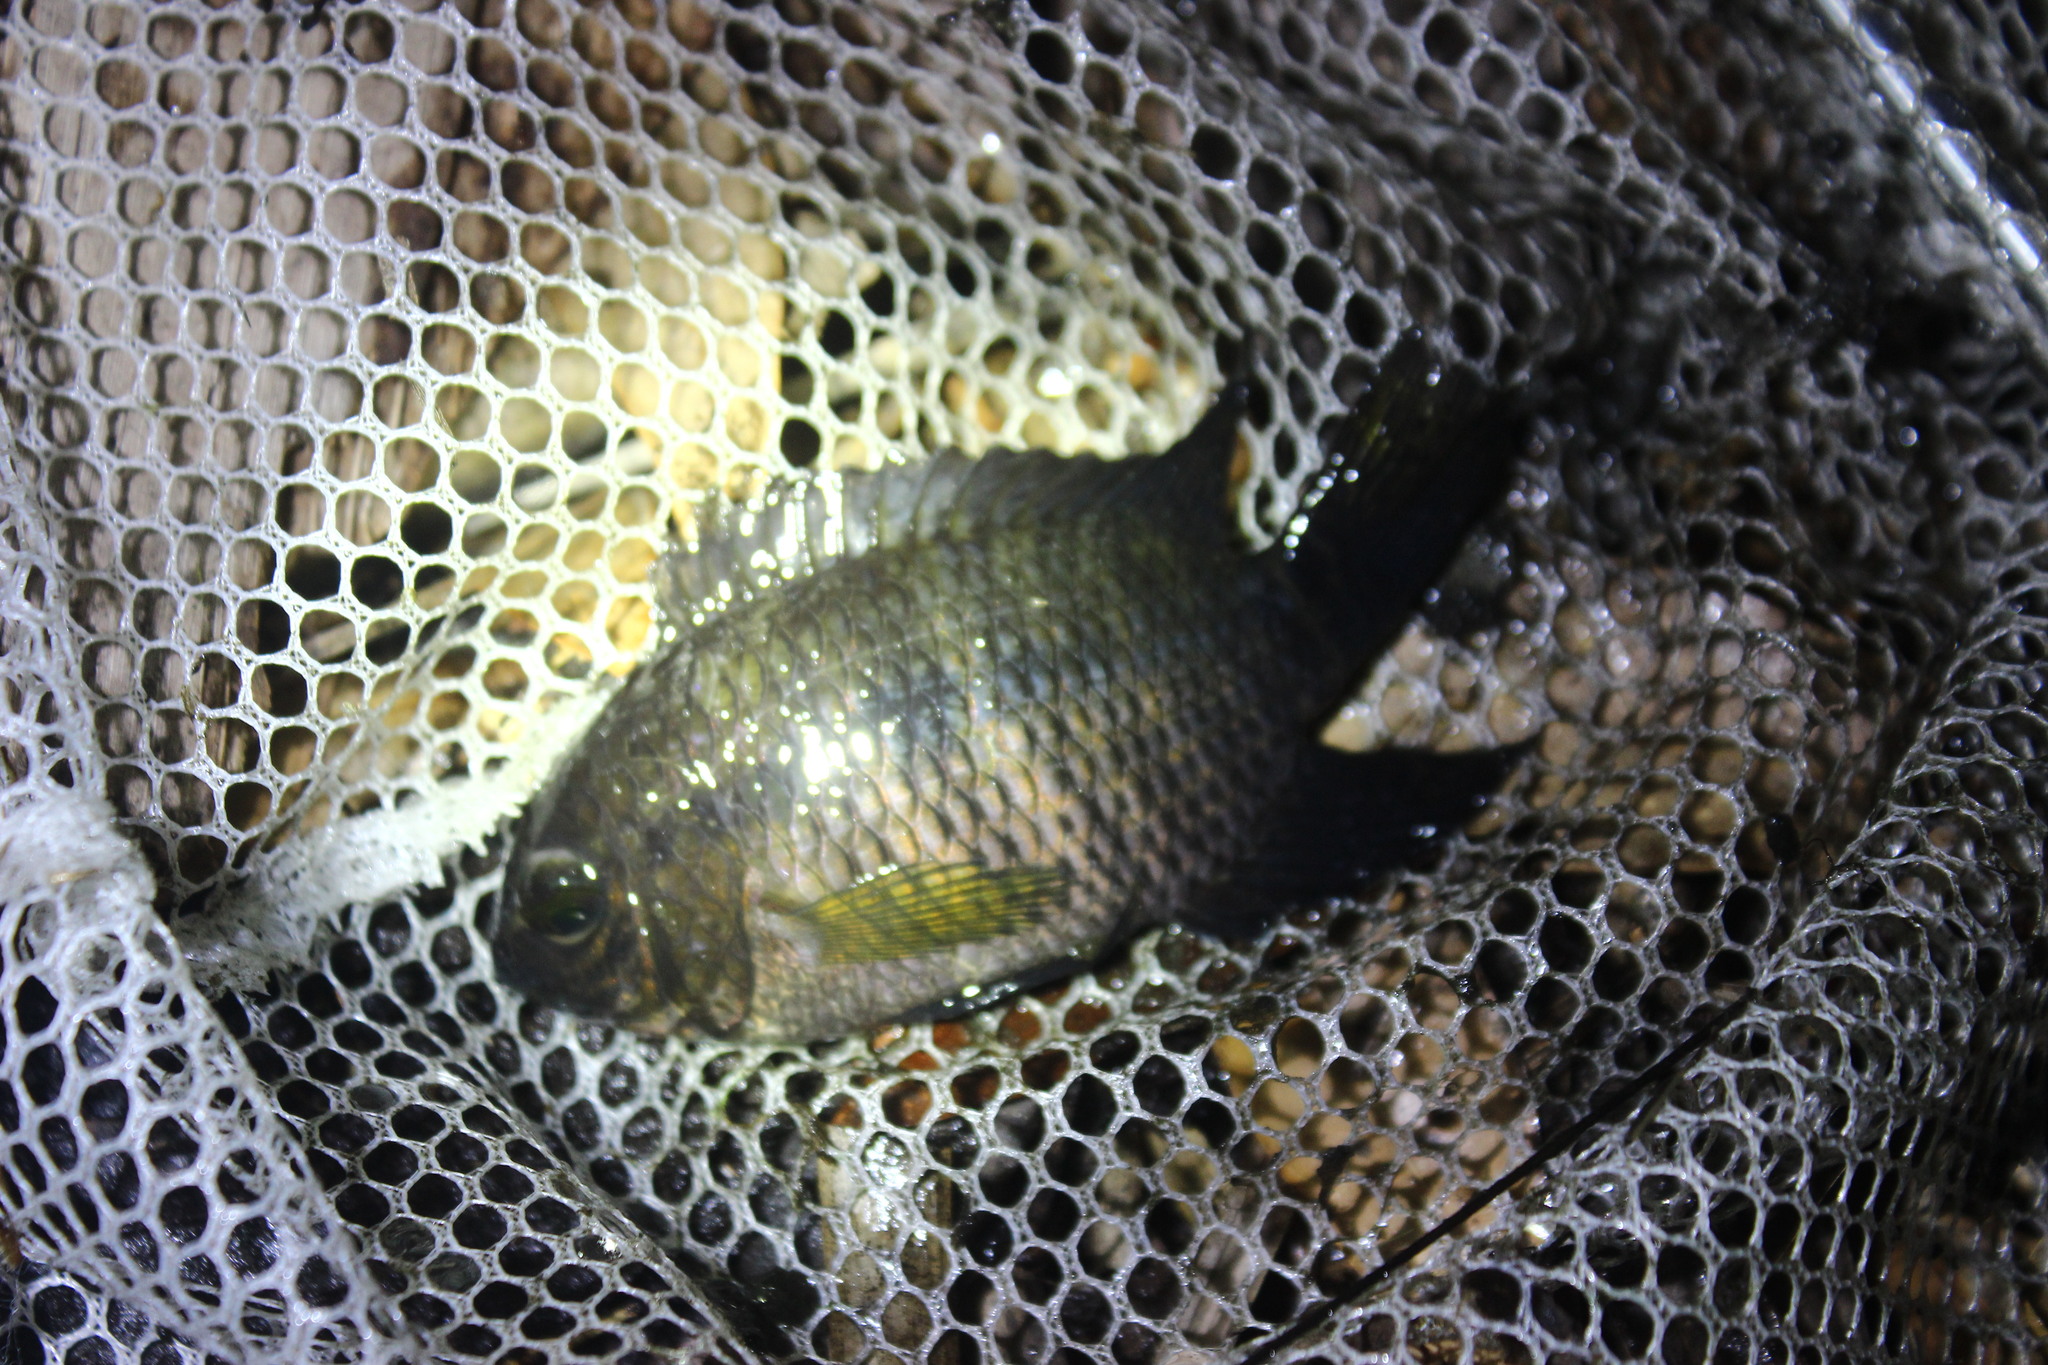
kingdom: Animalia
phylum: Chordata
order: Perciformes
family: Cichlidae
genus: Cichlasoma
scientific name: Cichlasoma dimerus
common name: Chanchita
